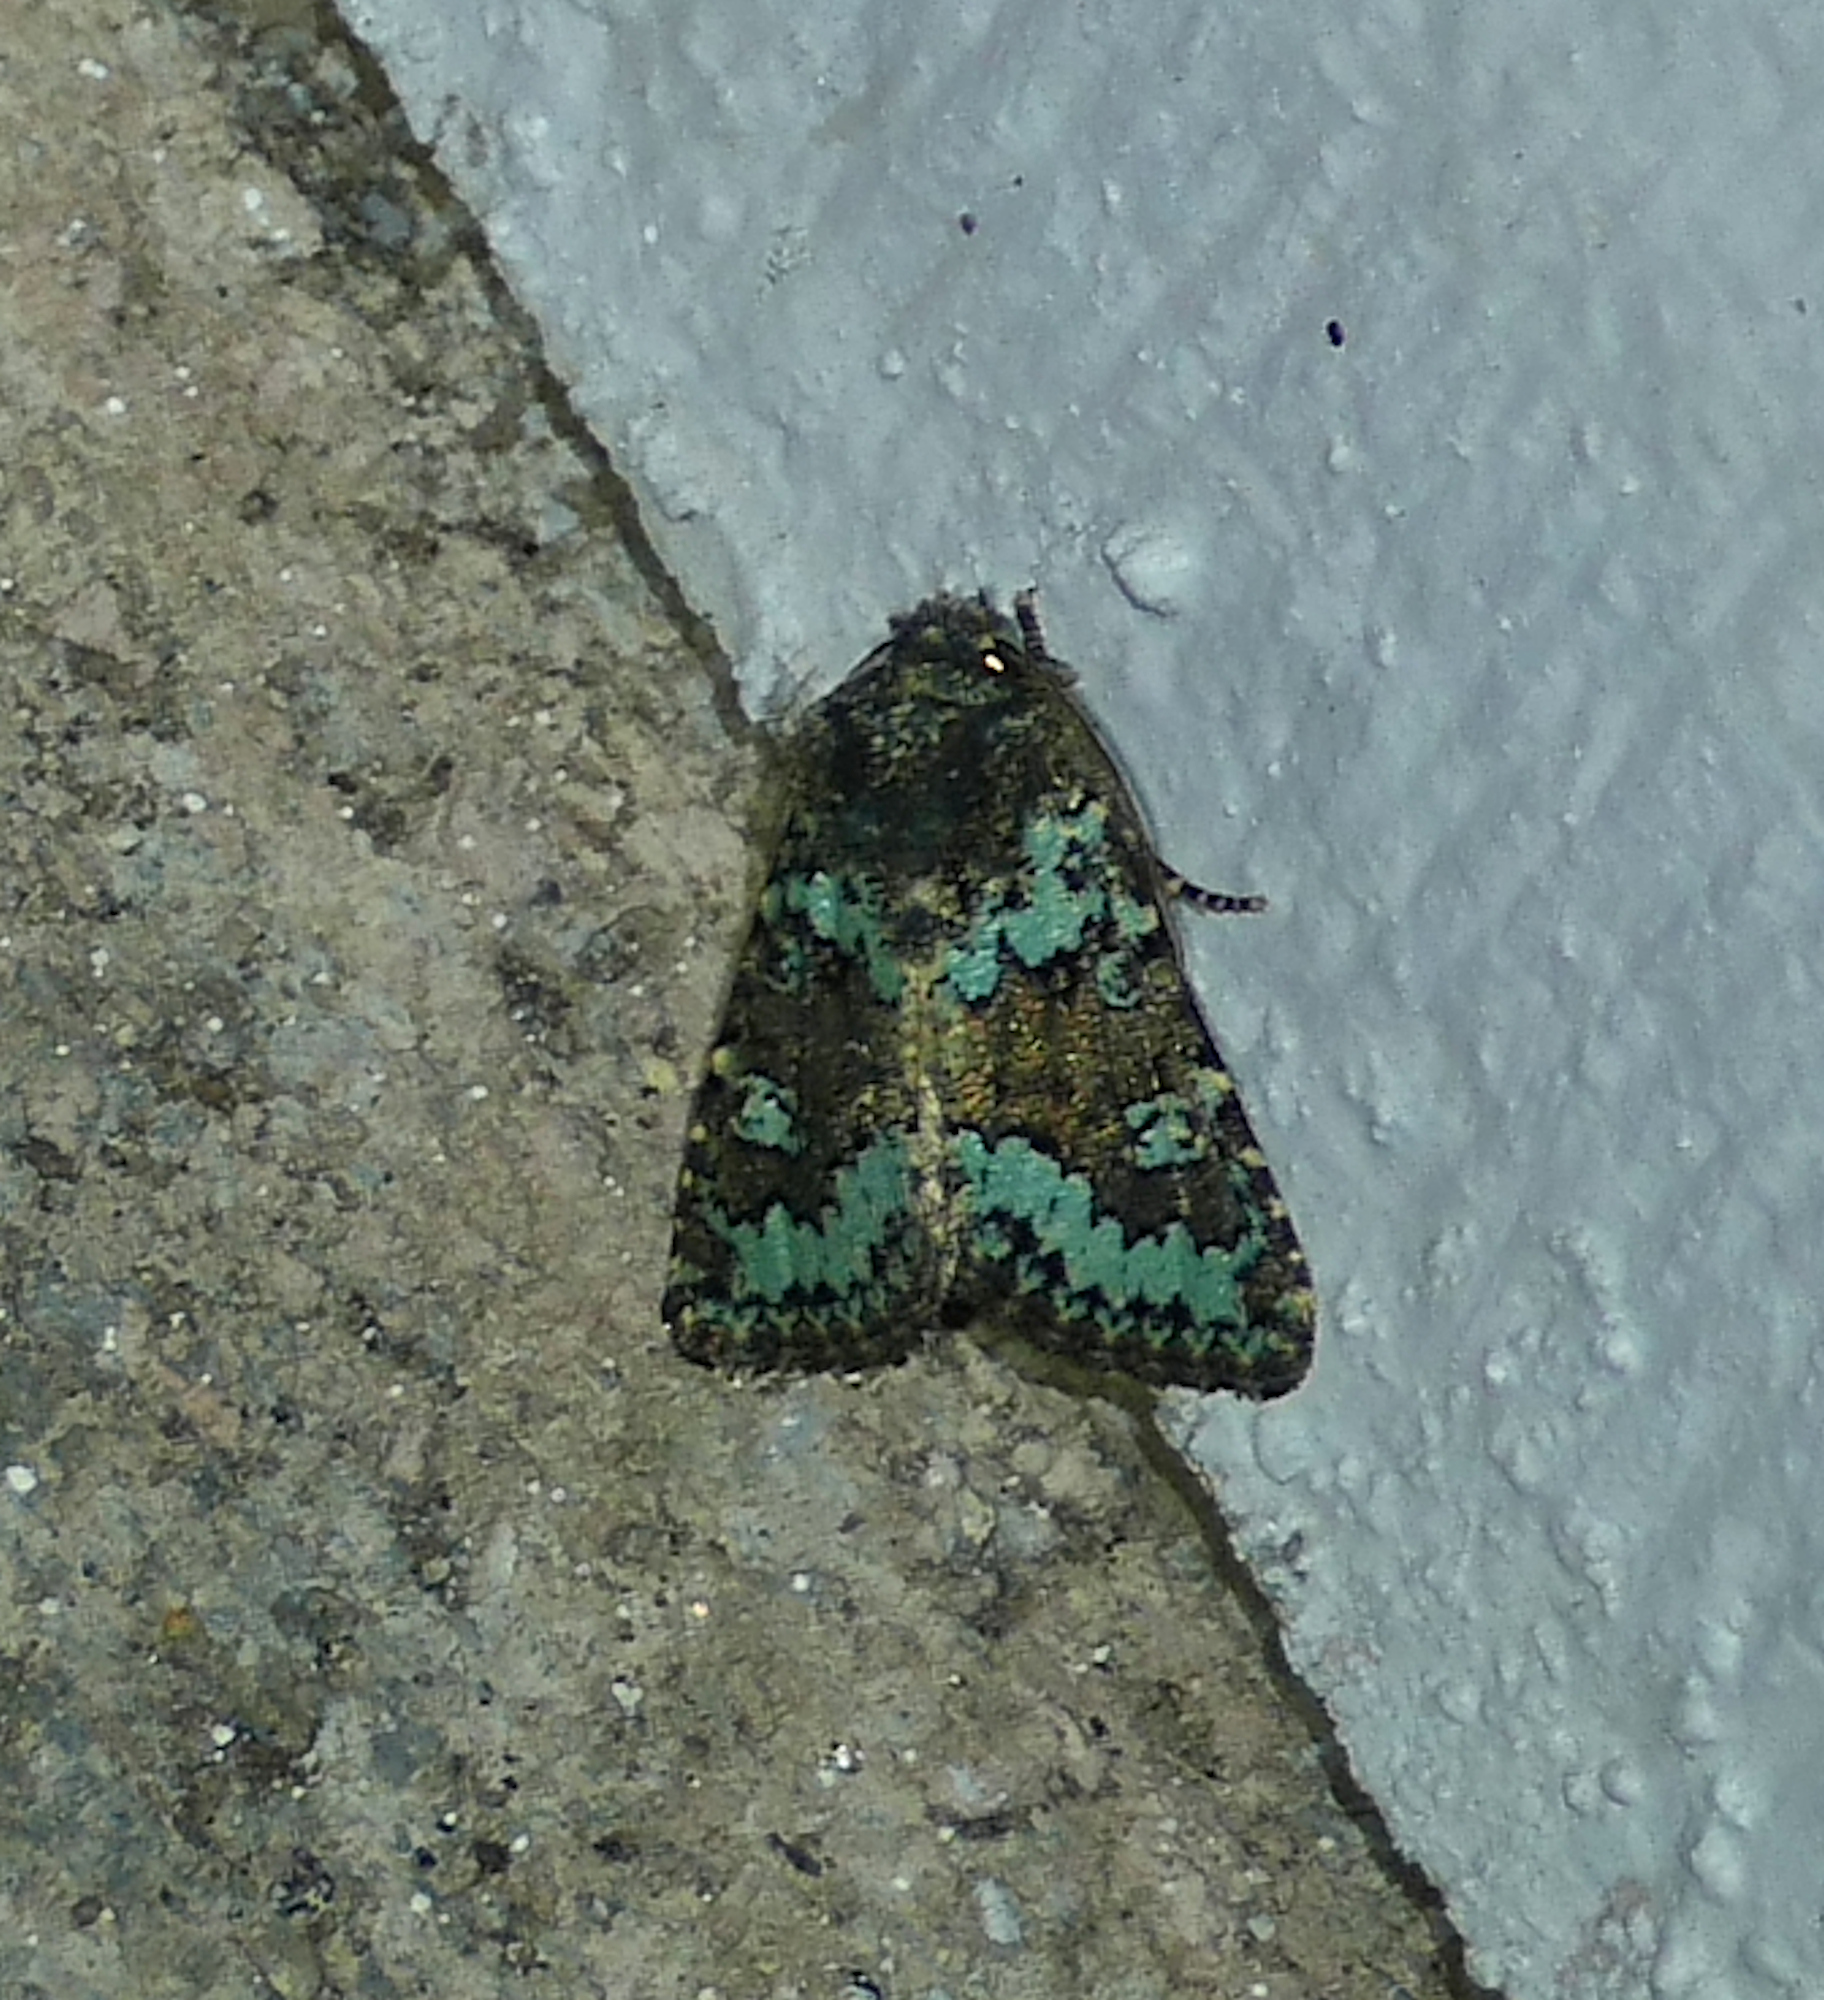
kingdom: Animalia
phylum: Arthropoda
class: Insecta
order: Lepidoptera
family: Noctuidae
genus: Paramiana
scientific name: Paramiana perissa
